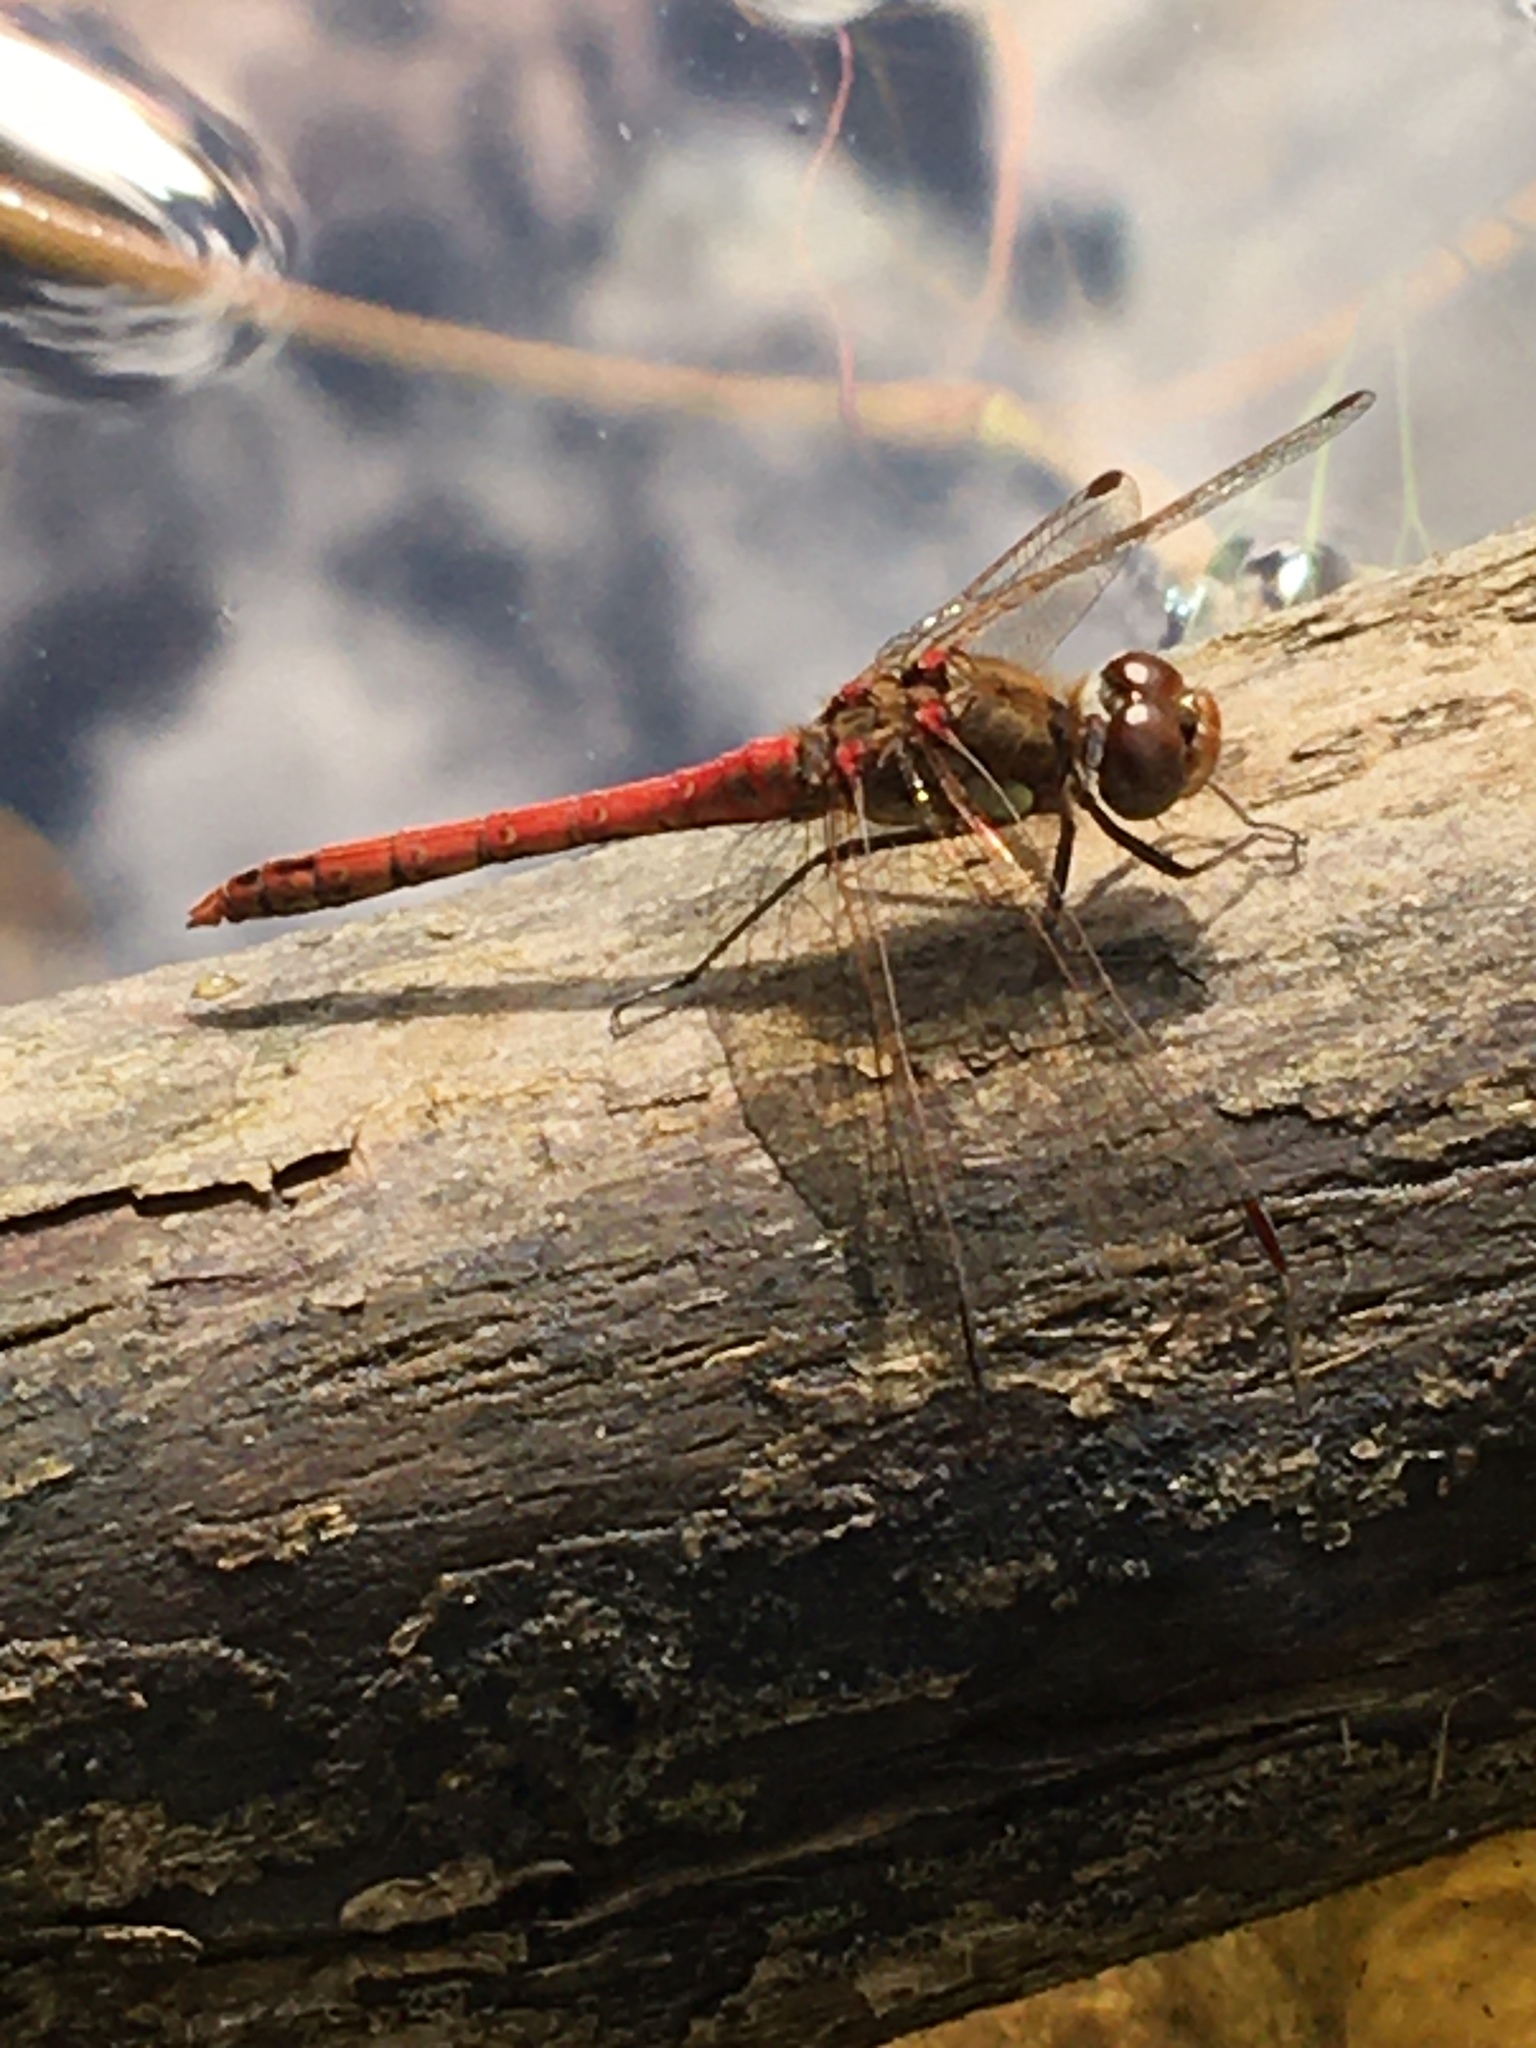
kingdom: Animalia
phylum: Arthropoda
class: Insecta
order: Odonata
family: Libellulidae
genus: Sympetrum
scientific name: Sympetrum striolatum
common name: Common darter
